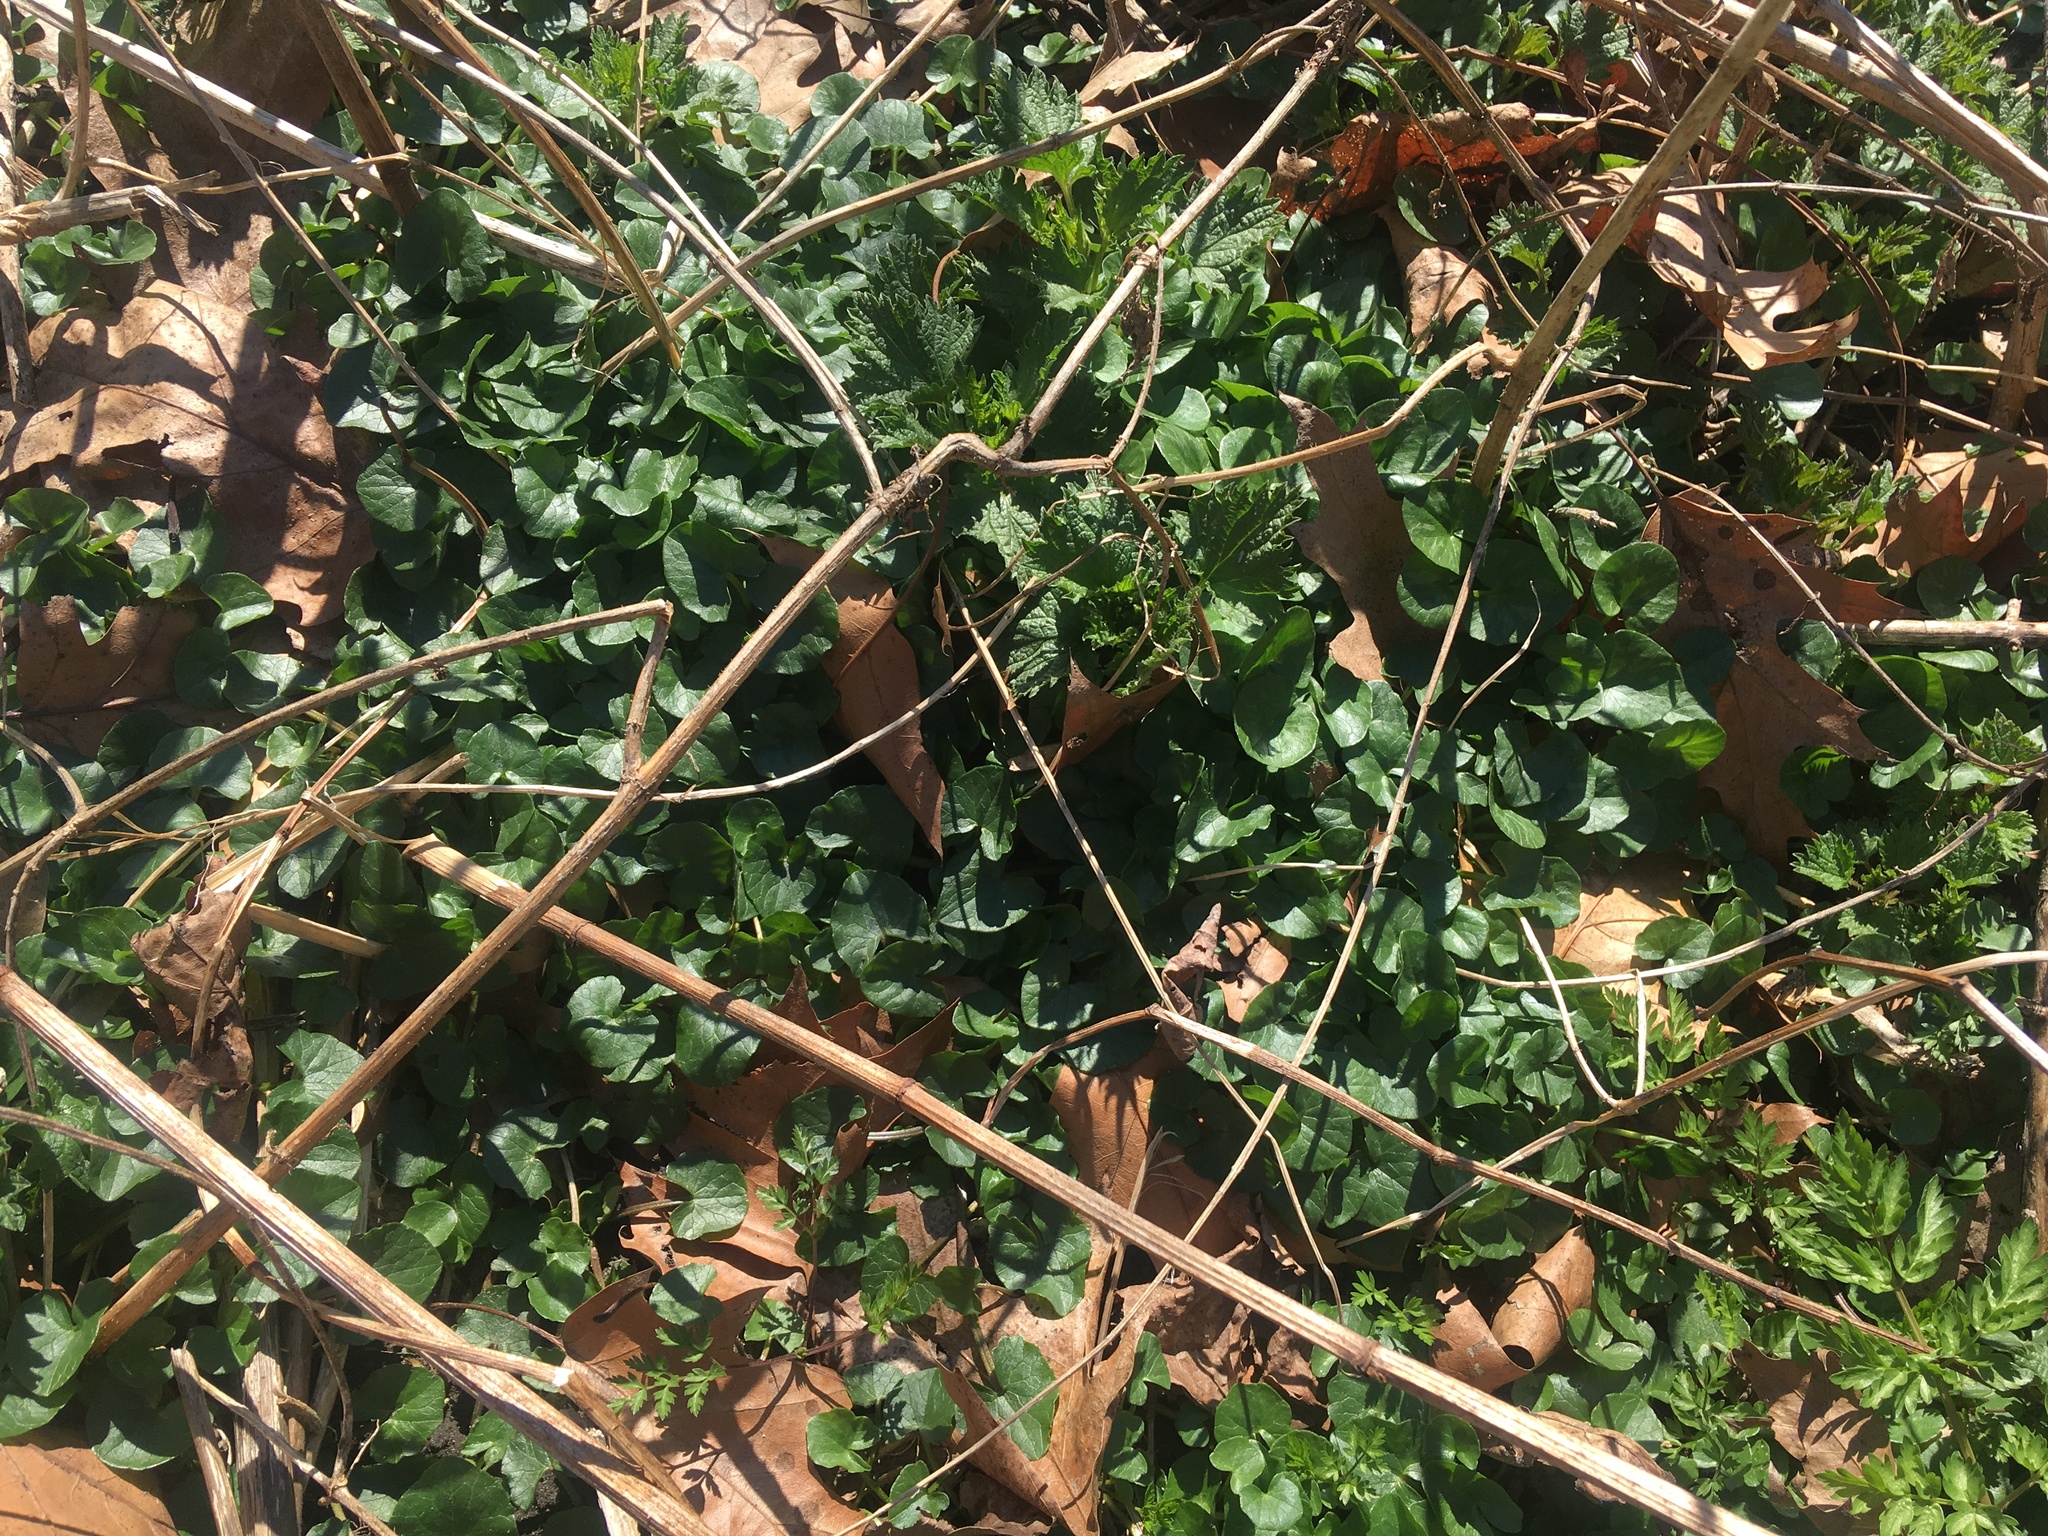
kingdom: Plantae
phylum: Tracheophyta
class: Magnoliopsida
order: Ranunculales
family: Ranunculaceae
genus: Ficaria
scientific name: Ficaria verna
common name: Lesser celandine
